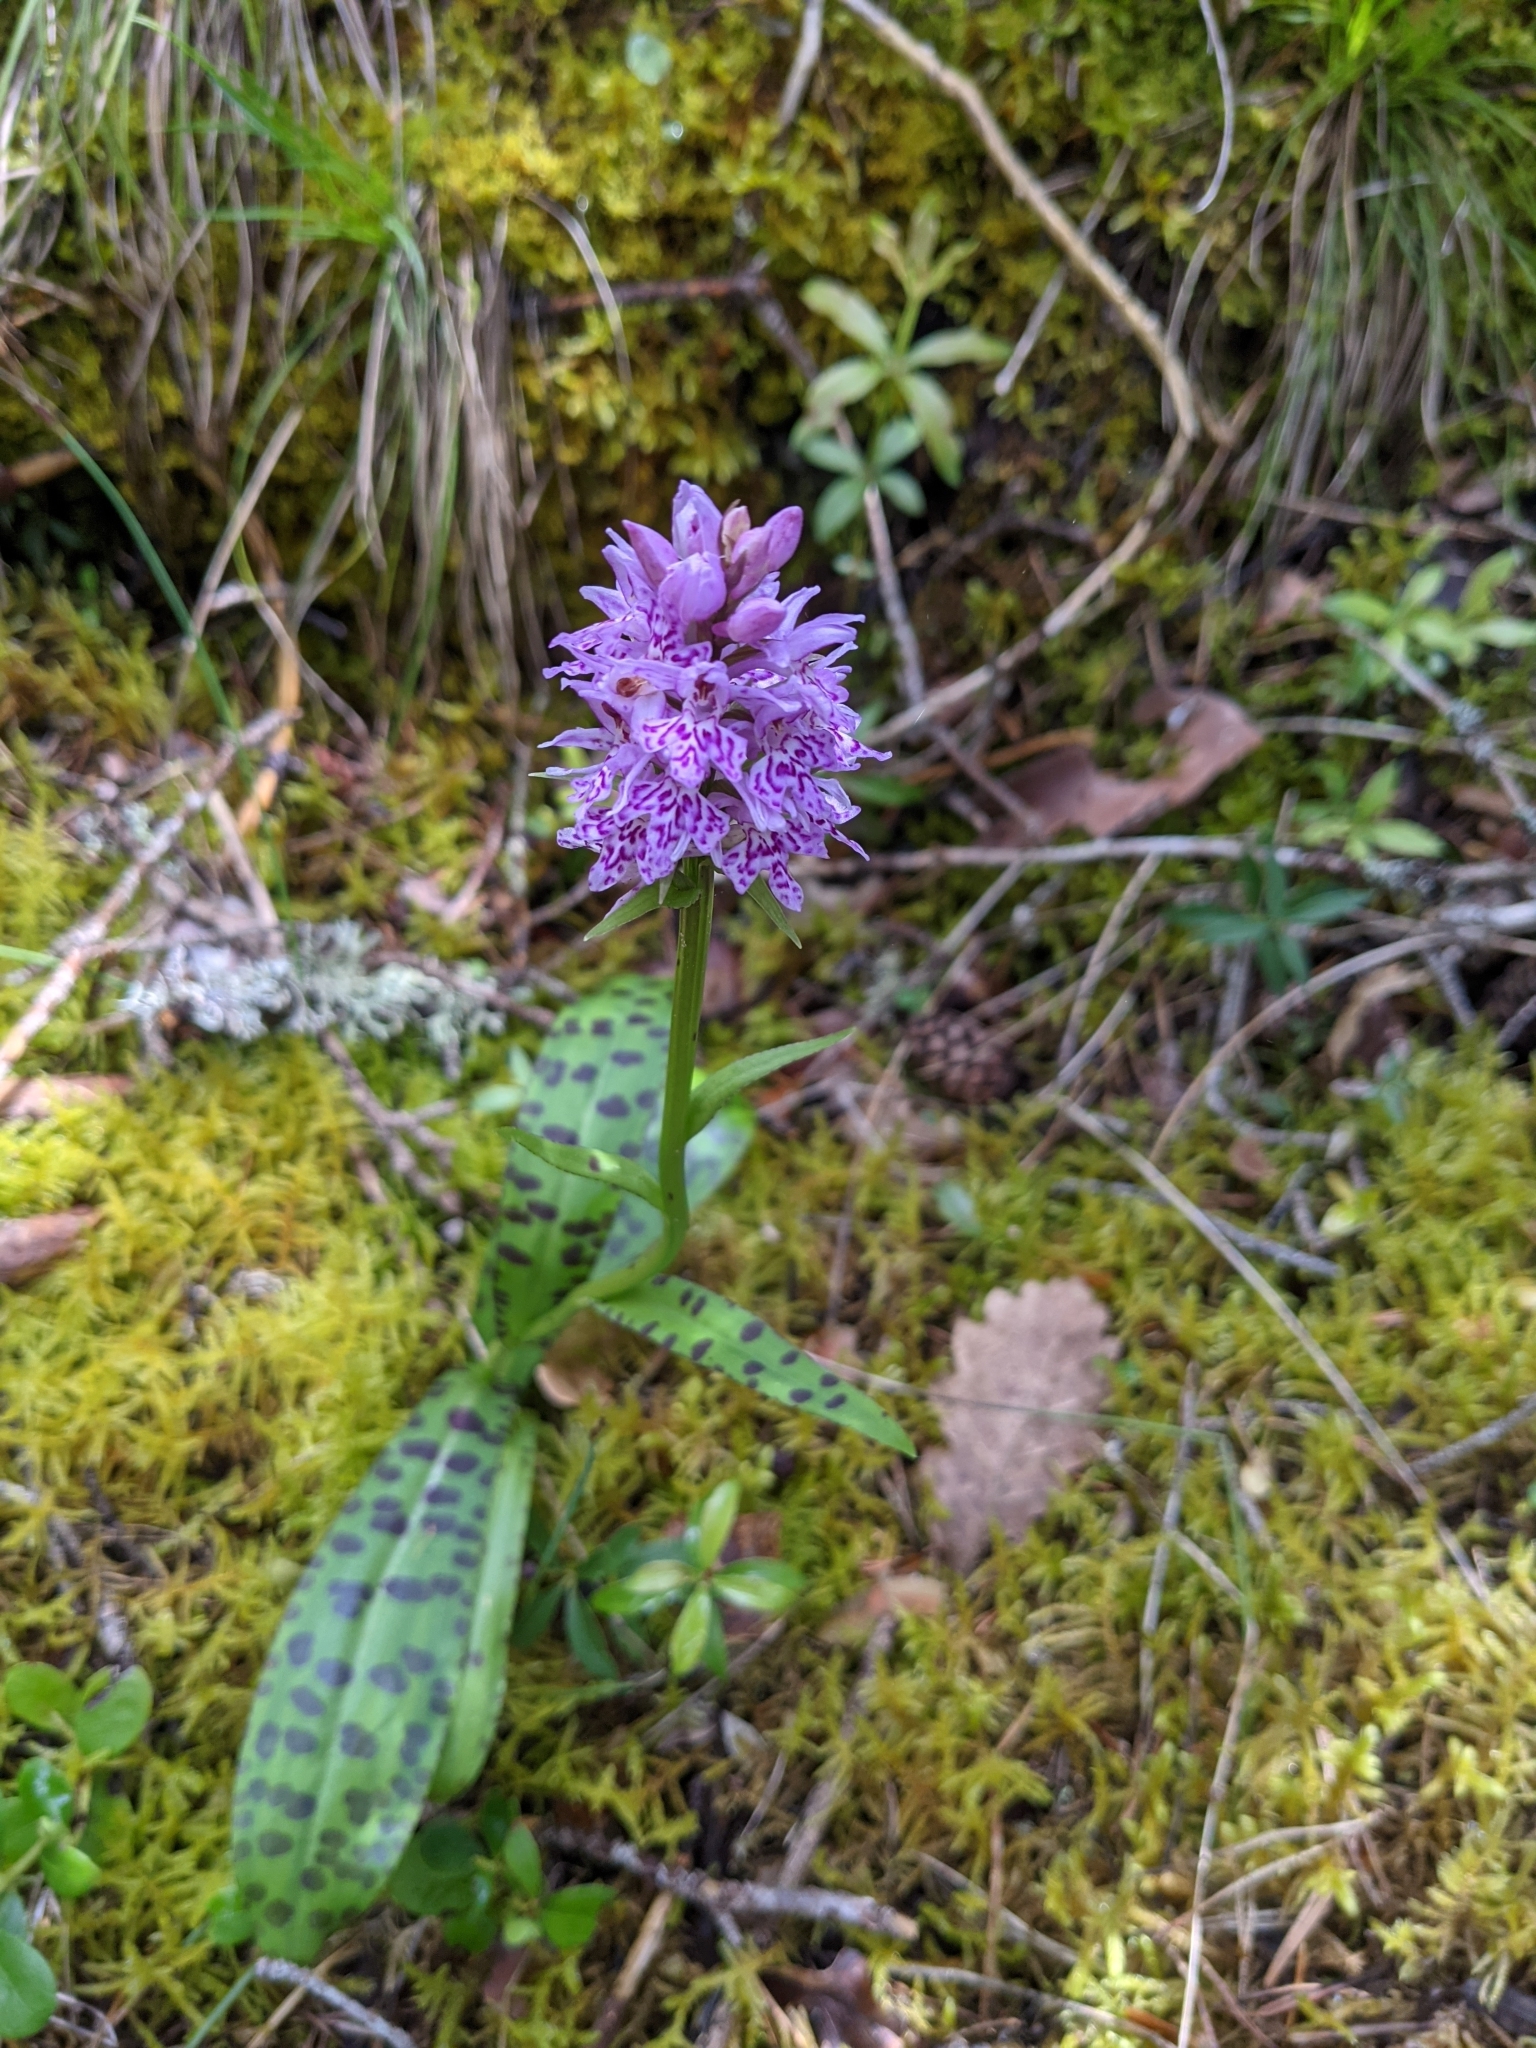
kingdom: Plantae
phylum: Tracheophyta
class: Liliopsida
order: Asparagales
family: Orchidaceae
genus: Dactylorhiza
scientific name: Dactylorhiza maculata
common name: Heath spotted-orchid
